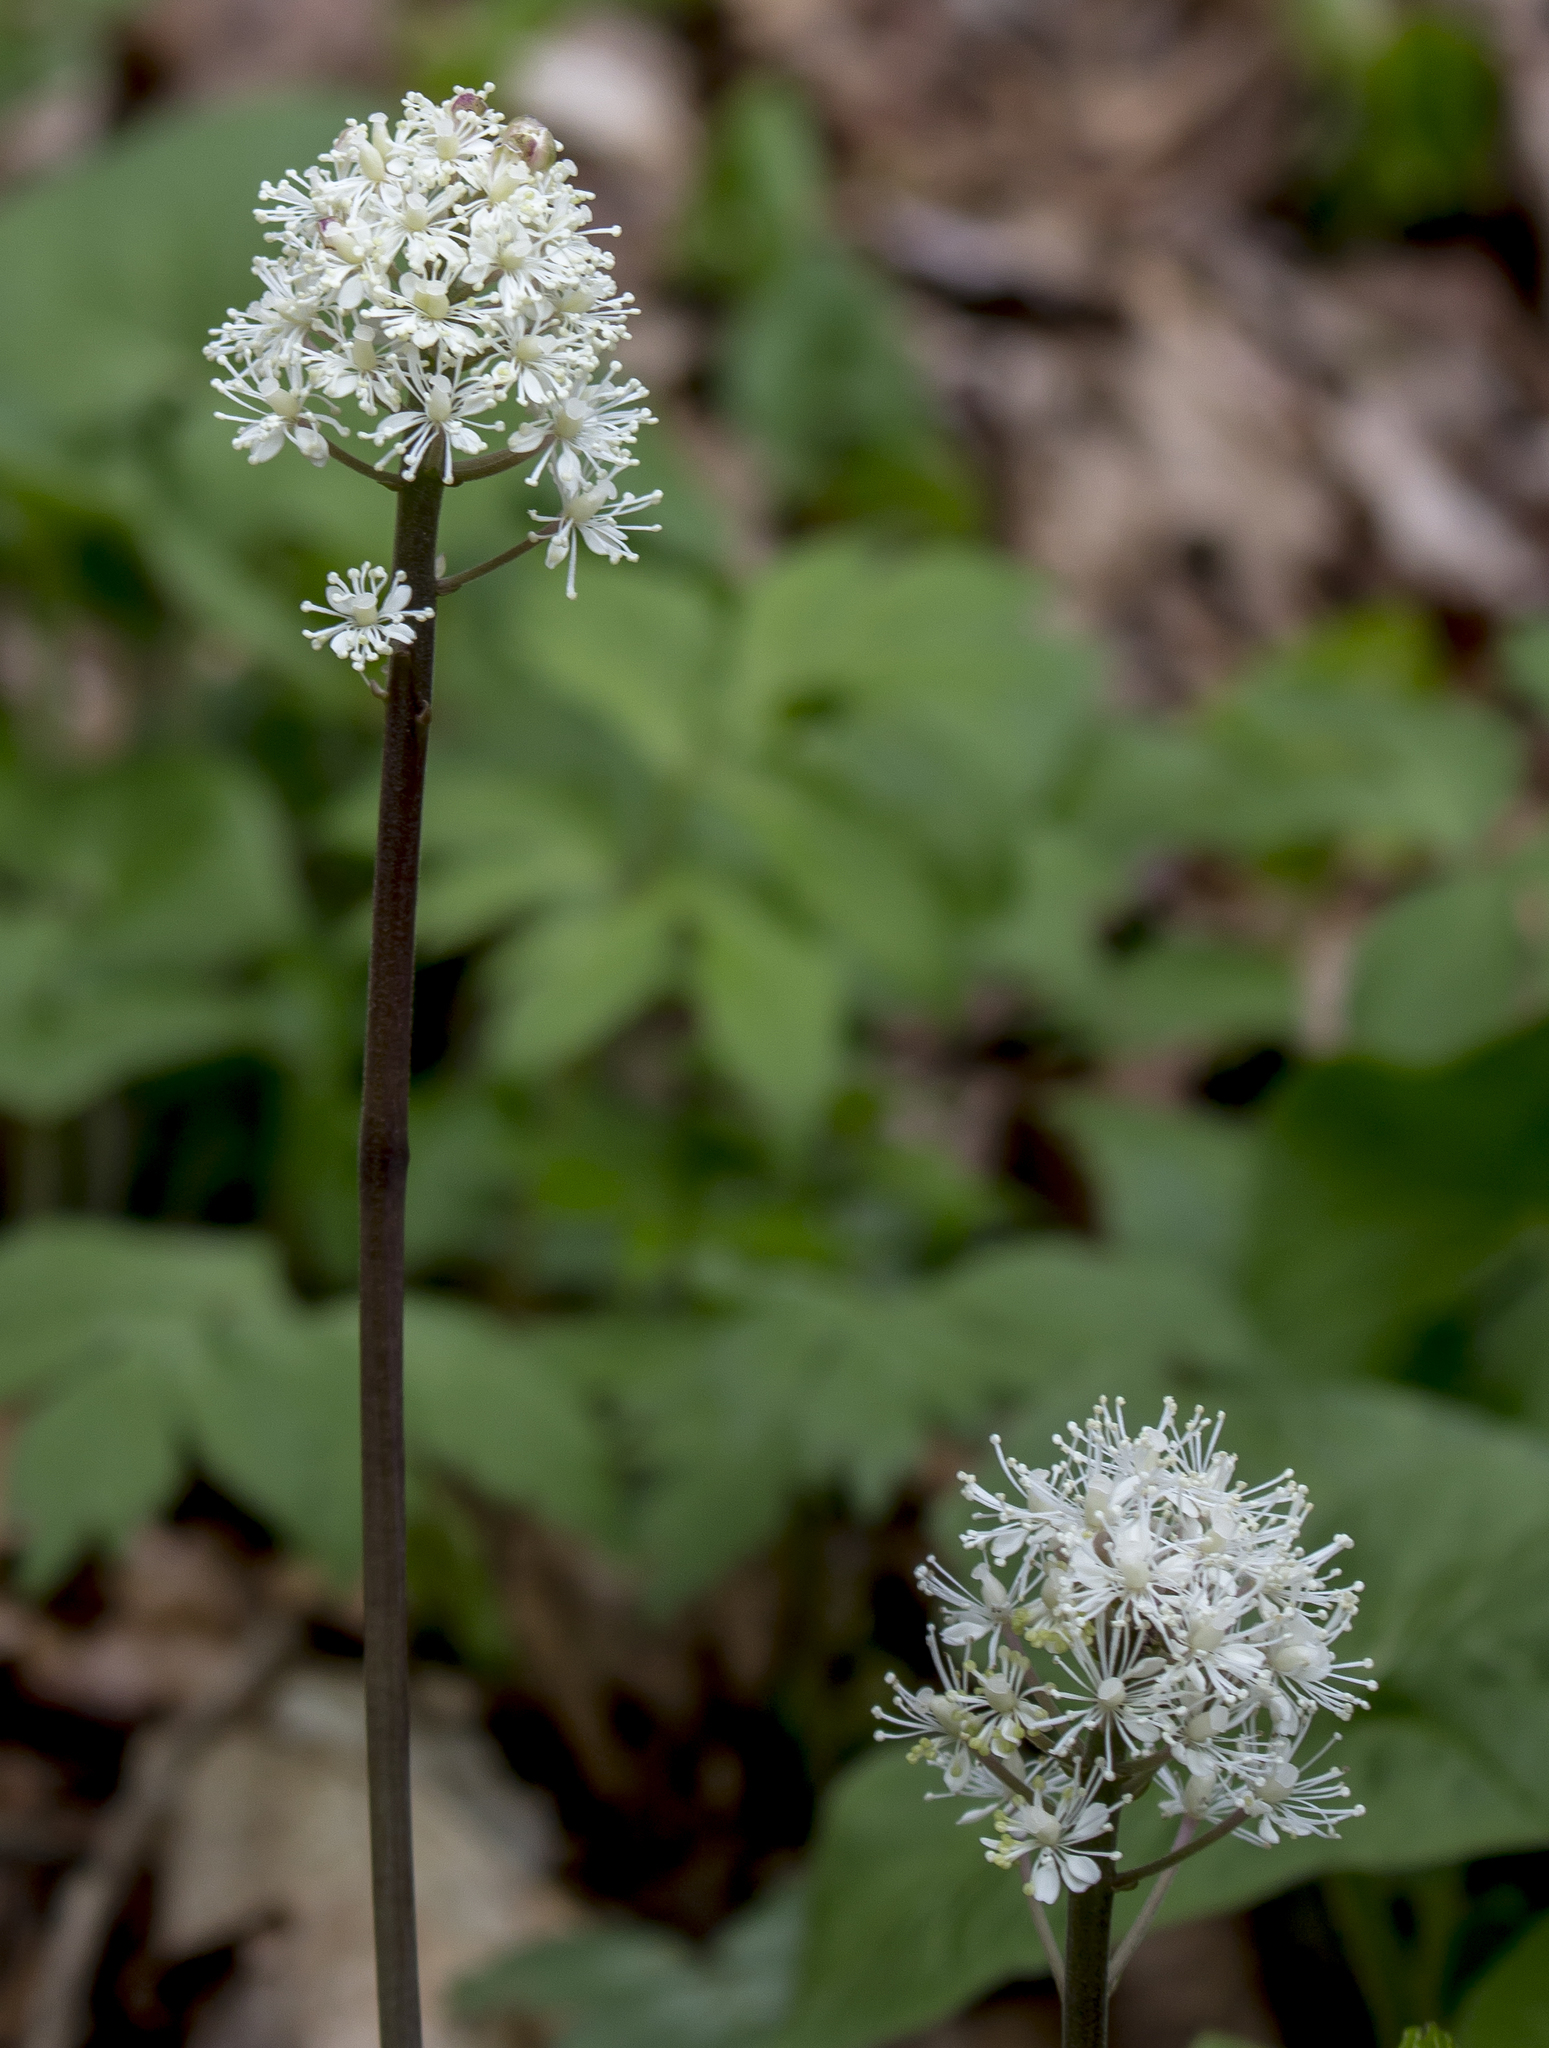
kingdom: Plantae
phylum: Tracheophyta
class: Magnoliopsida
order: Ranunculales
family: Ranunculaceae
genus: Actaea
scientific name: Actaea rubra
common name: Red baneberry
